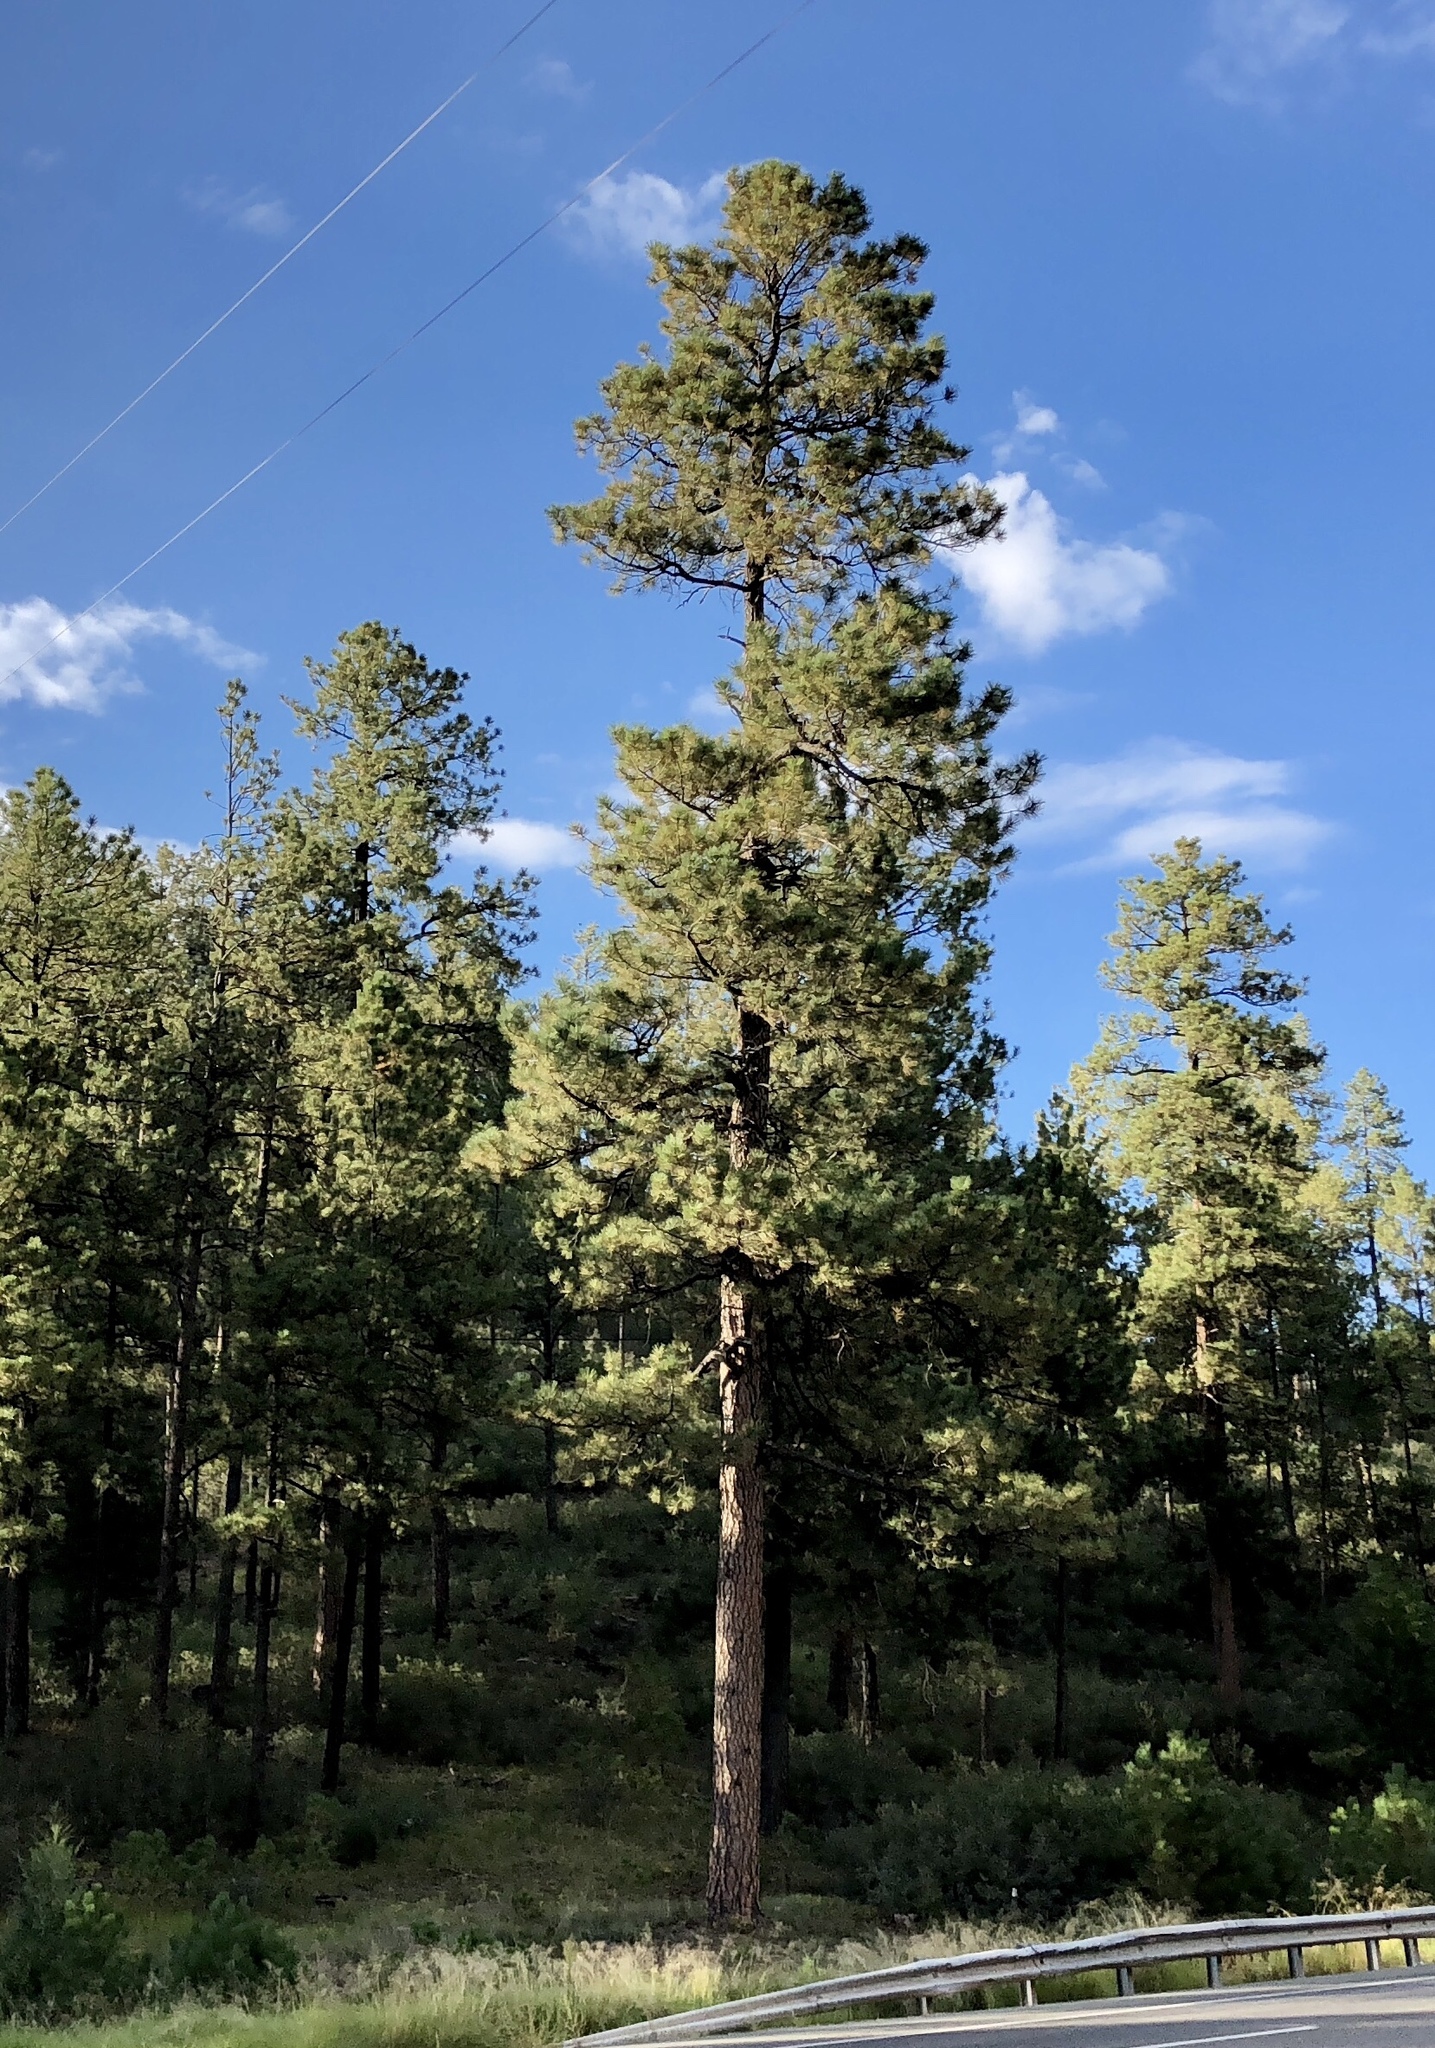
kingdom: Plantae
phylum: Tracheophyta
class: Pinopsida
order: Pinales
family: Pinaceae
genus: Pinus
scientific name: Pinus ponderosa
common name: Western yellow-pine
